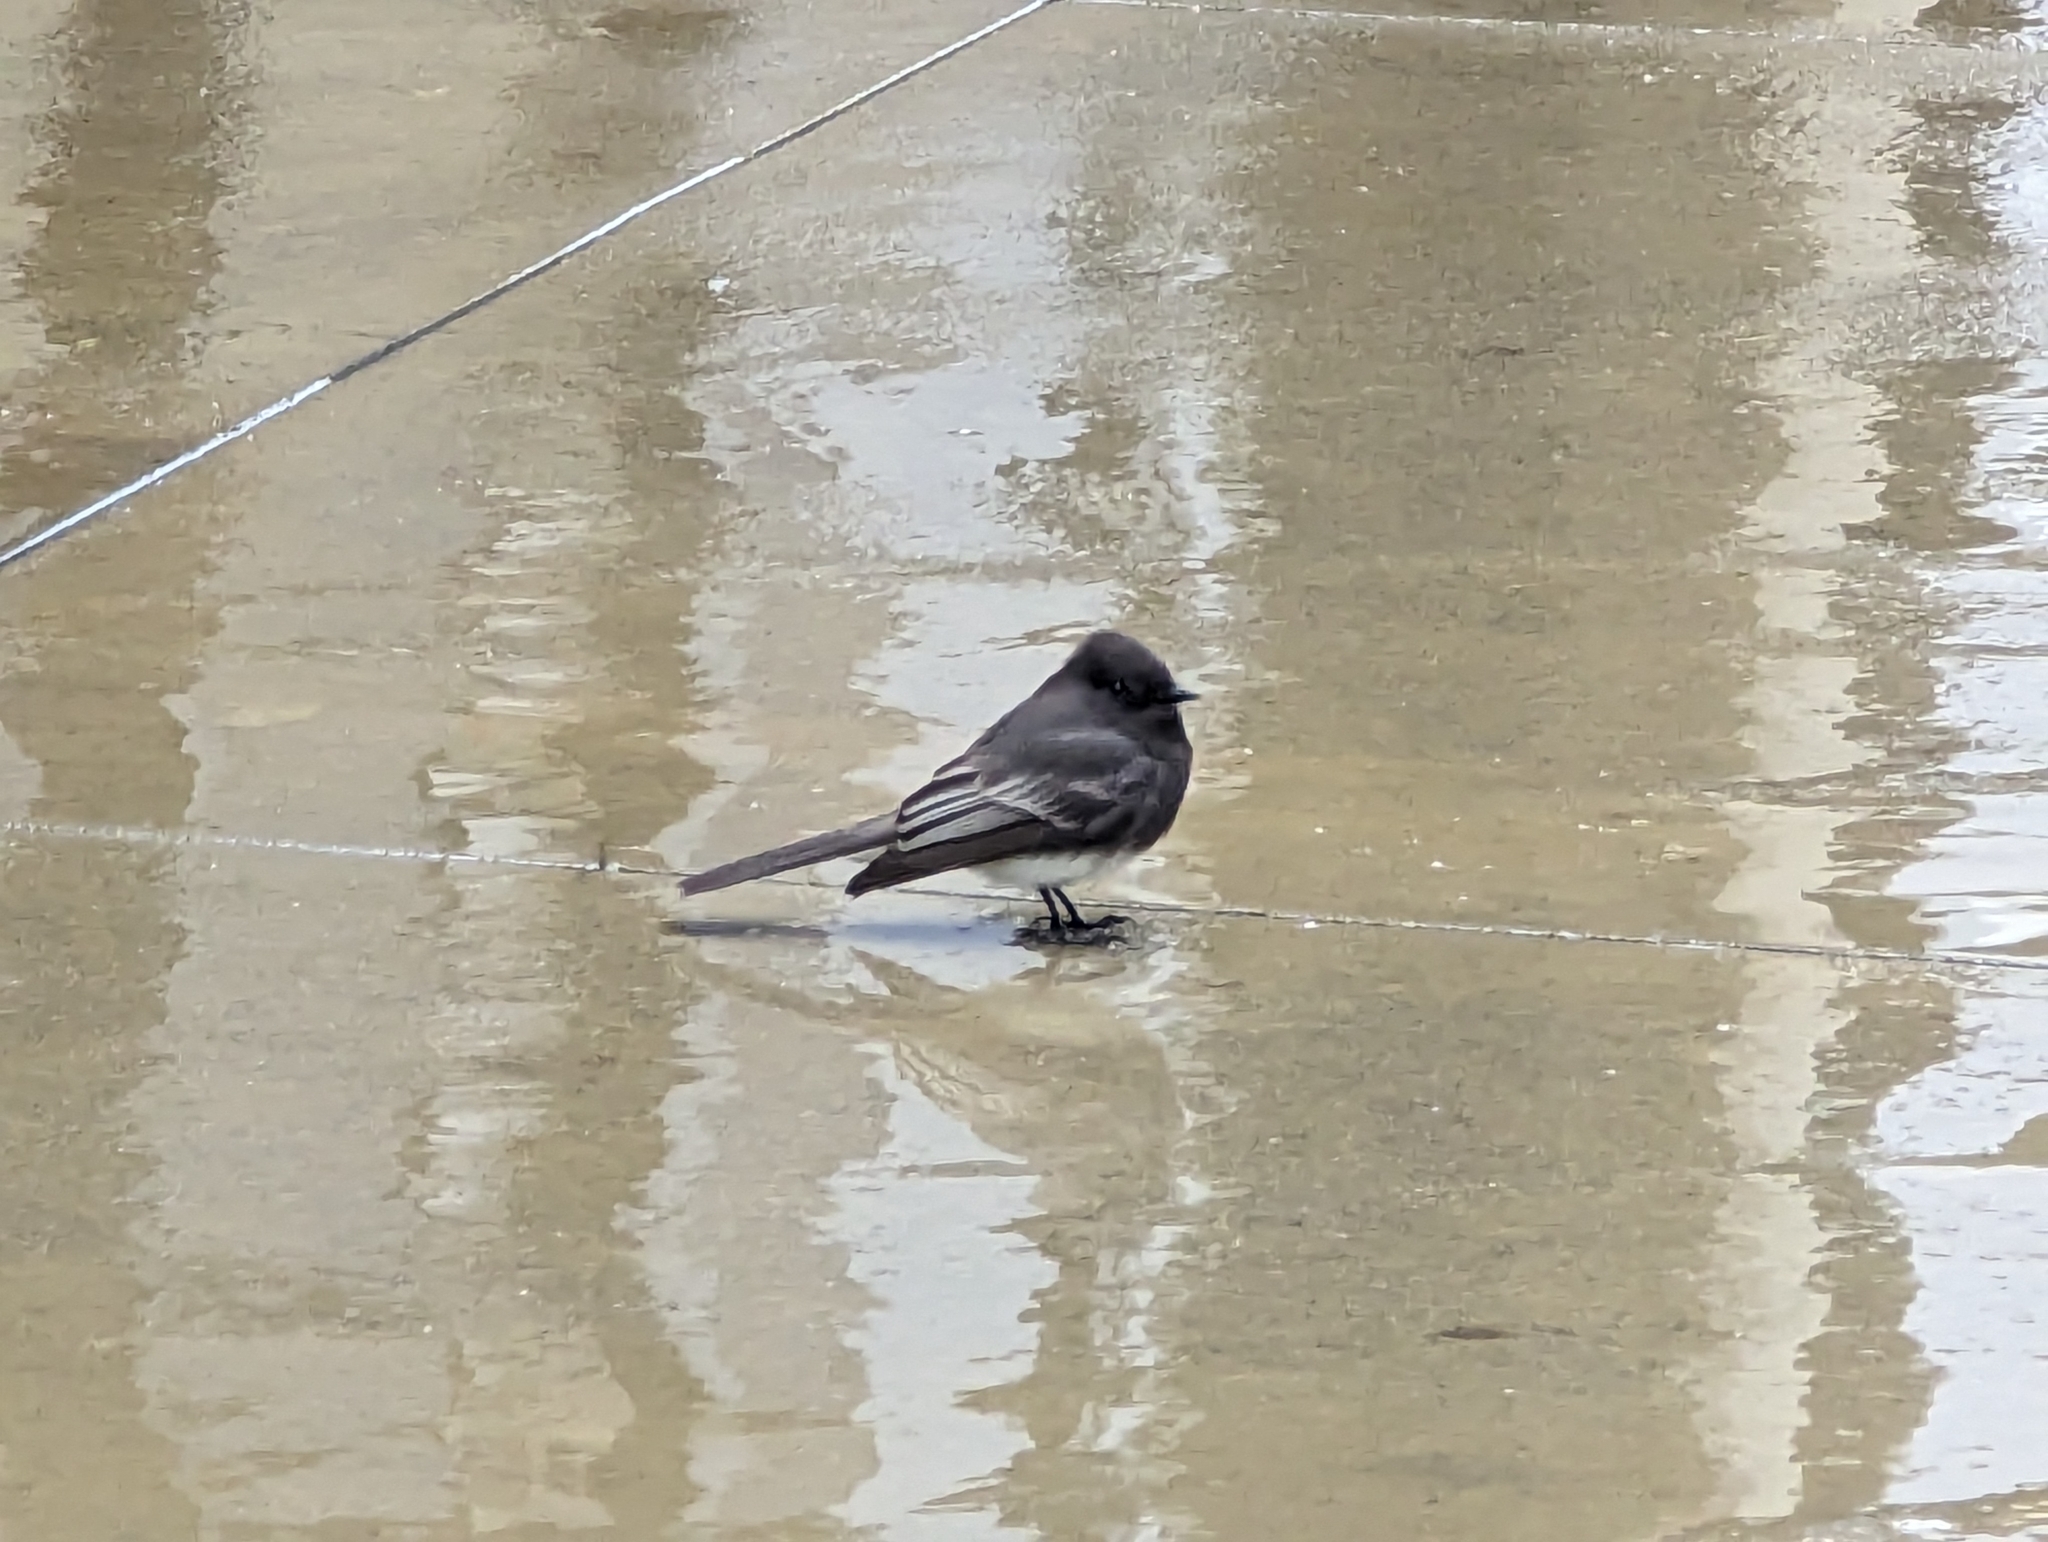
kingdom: Animalia
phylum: Chordata
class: Aves
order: Passeriformes
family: Tyrannidae
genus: Sayornis
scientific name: Sayornis nigricans
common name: Black phoebe
